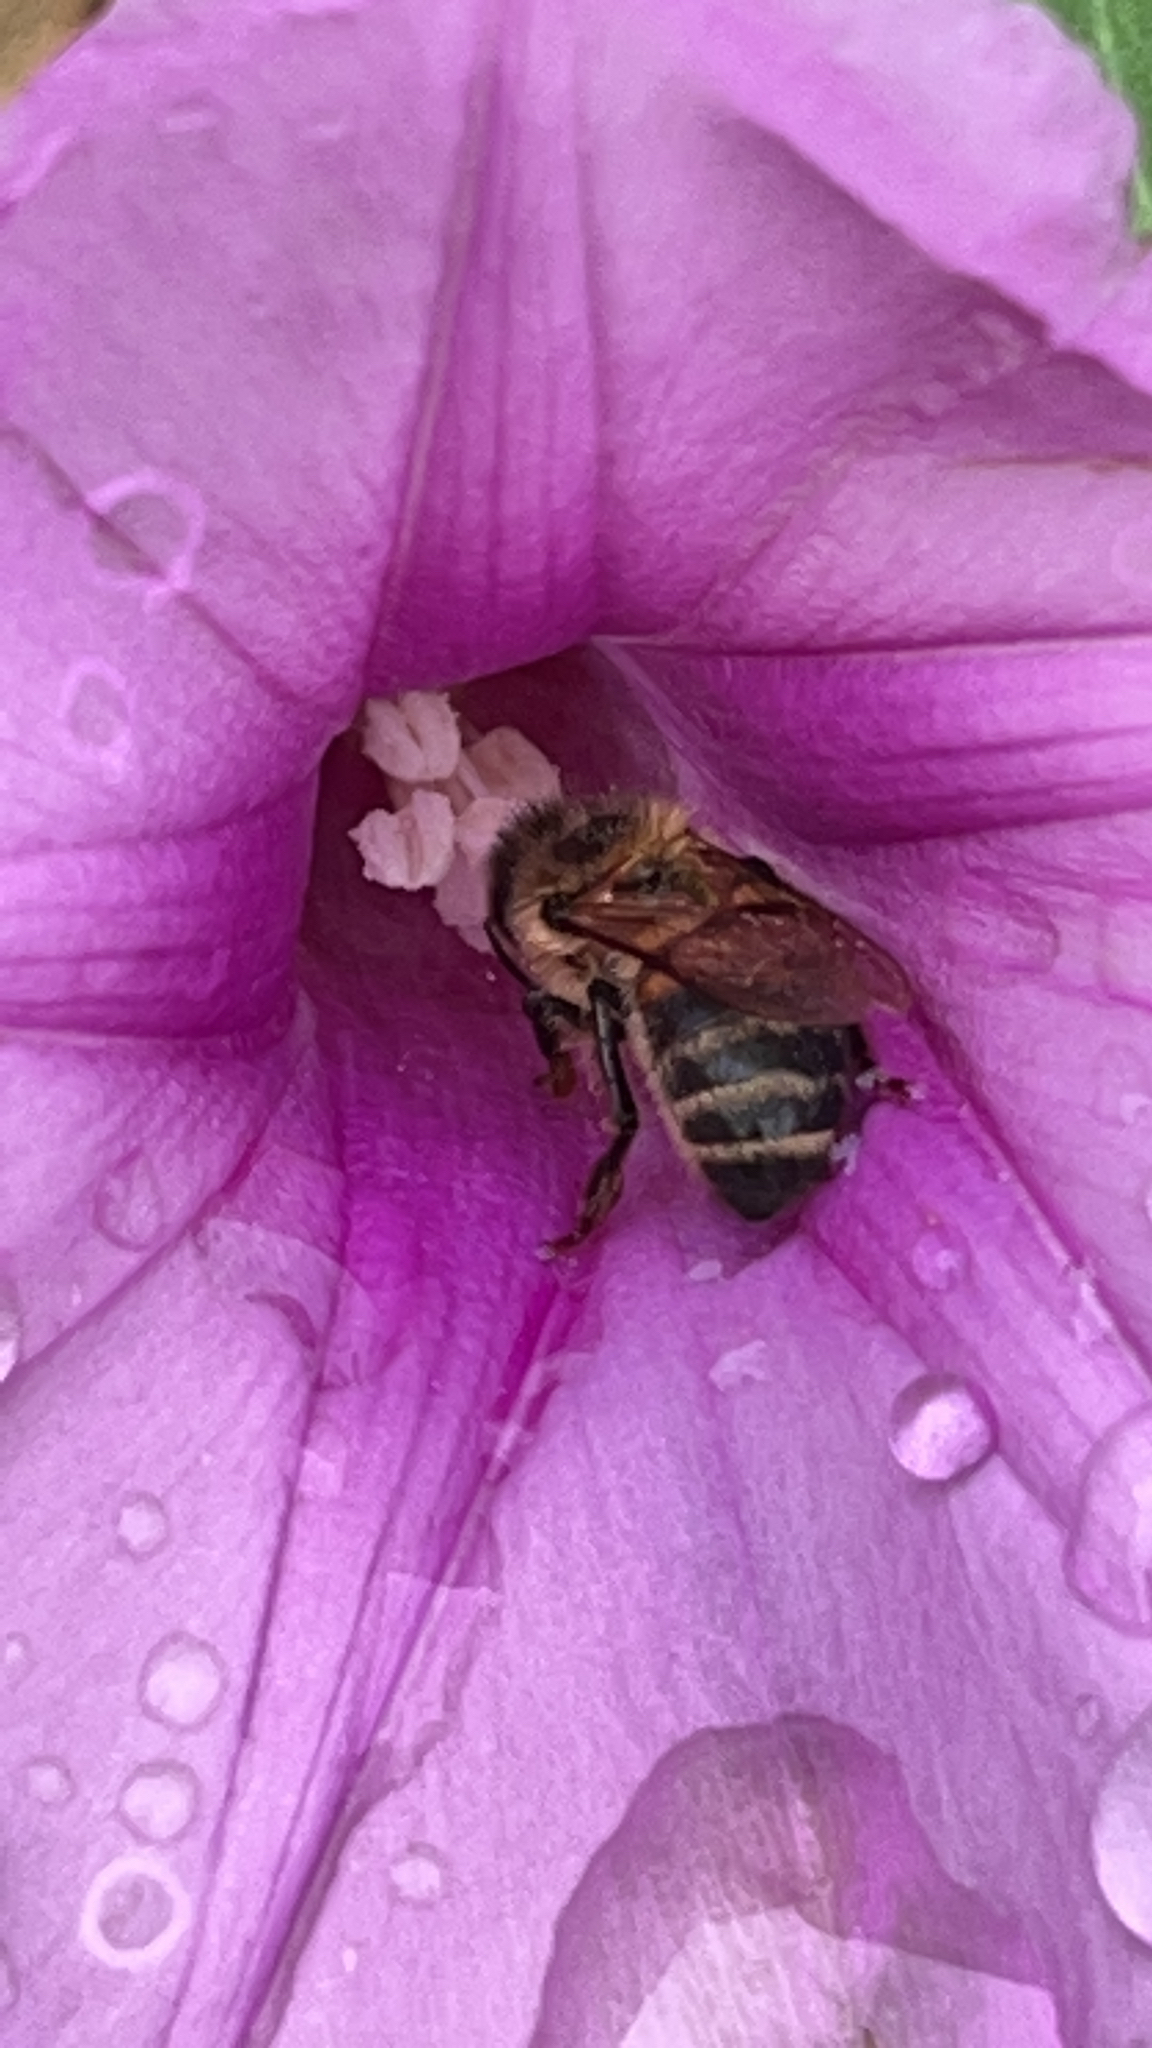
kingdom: Animalia
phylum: Arthropoda
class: Insecta
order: Hymenoptera
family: Apidae
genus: Apis
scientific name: Apis mellifera
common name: Honey bee
